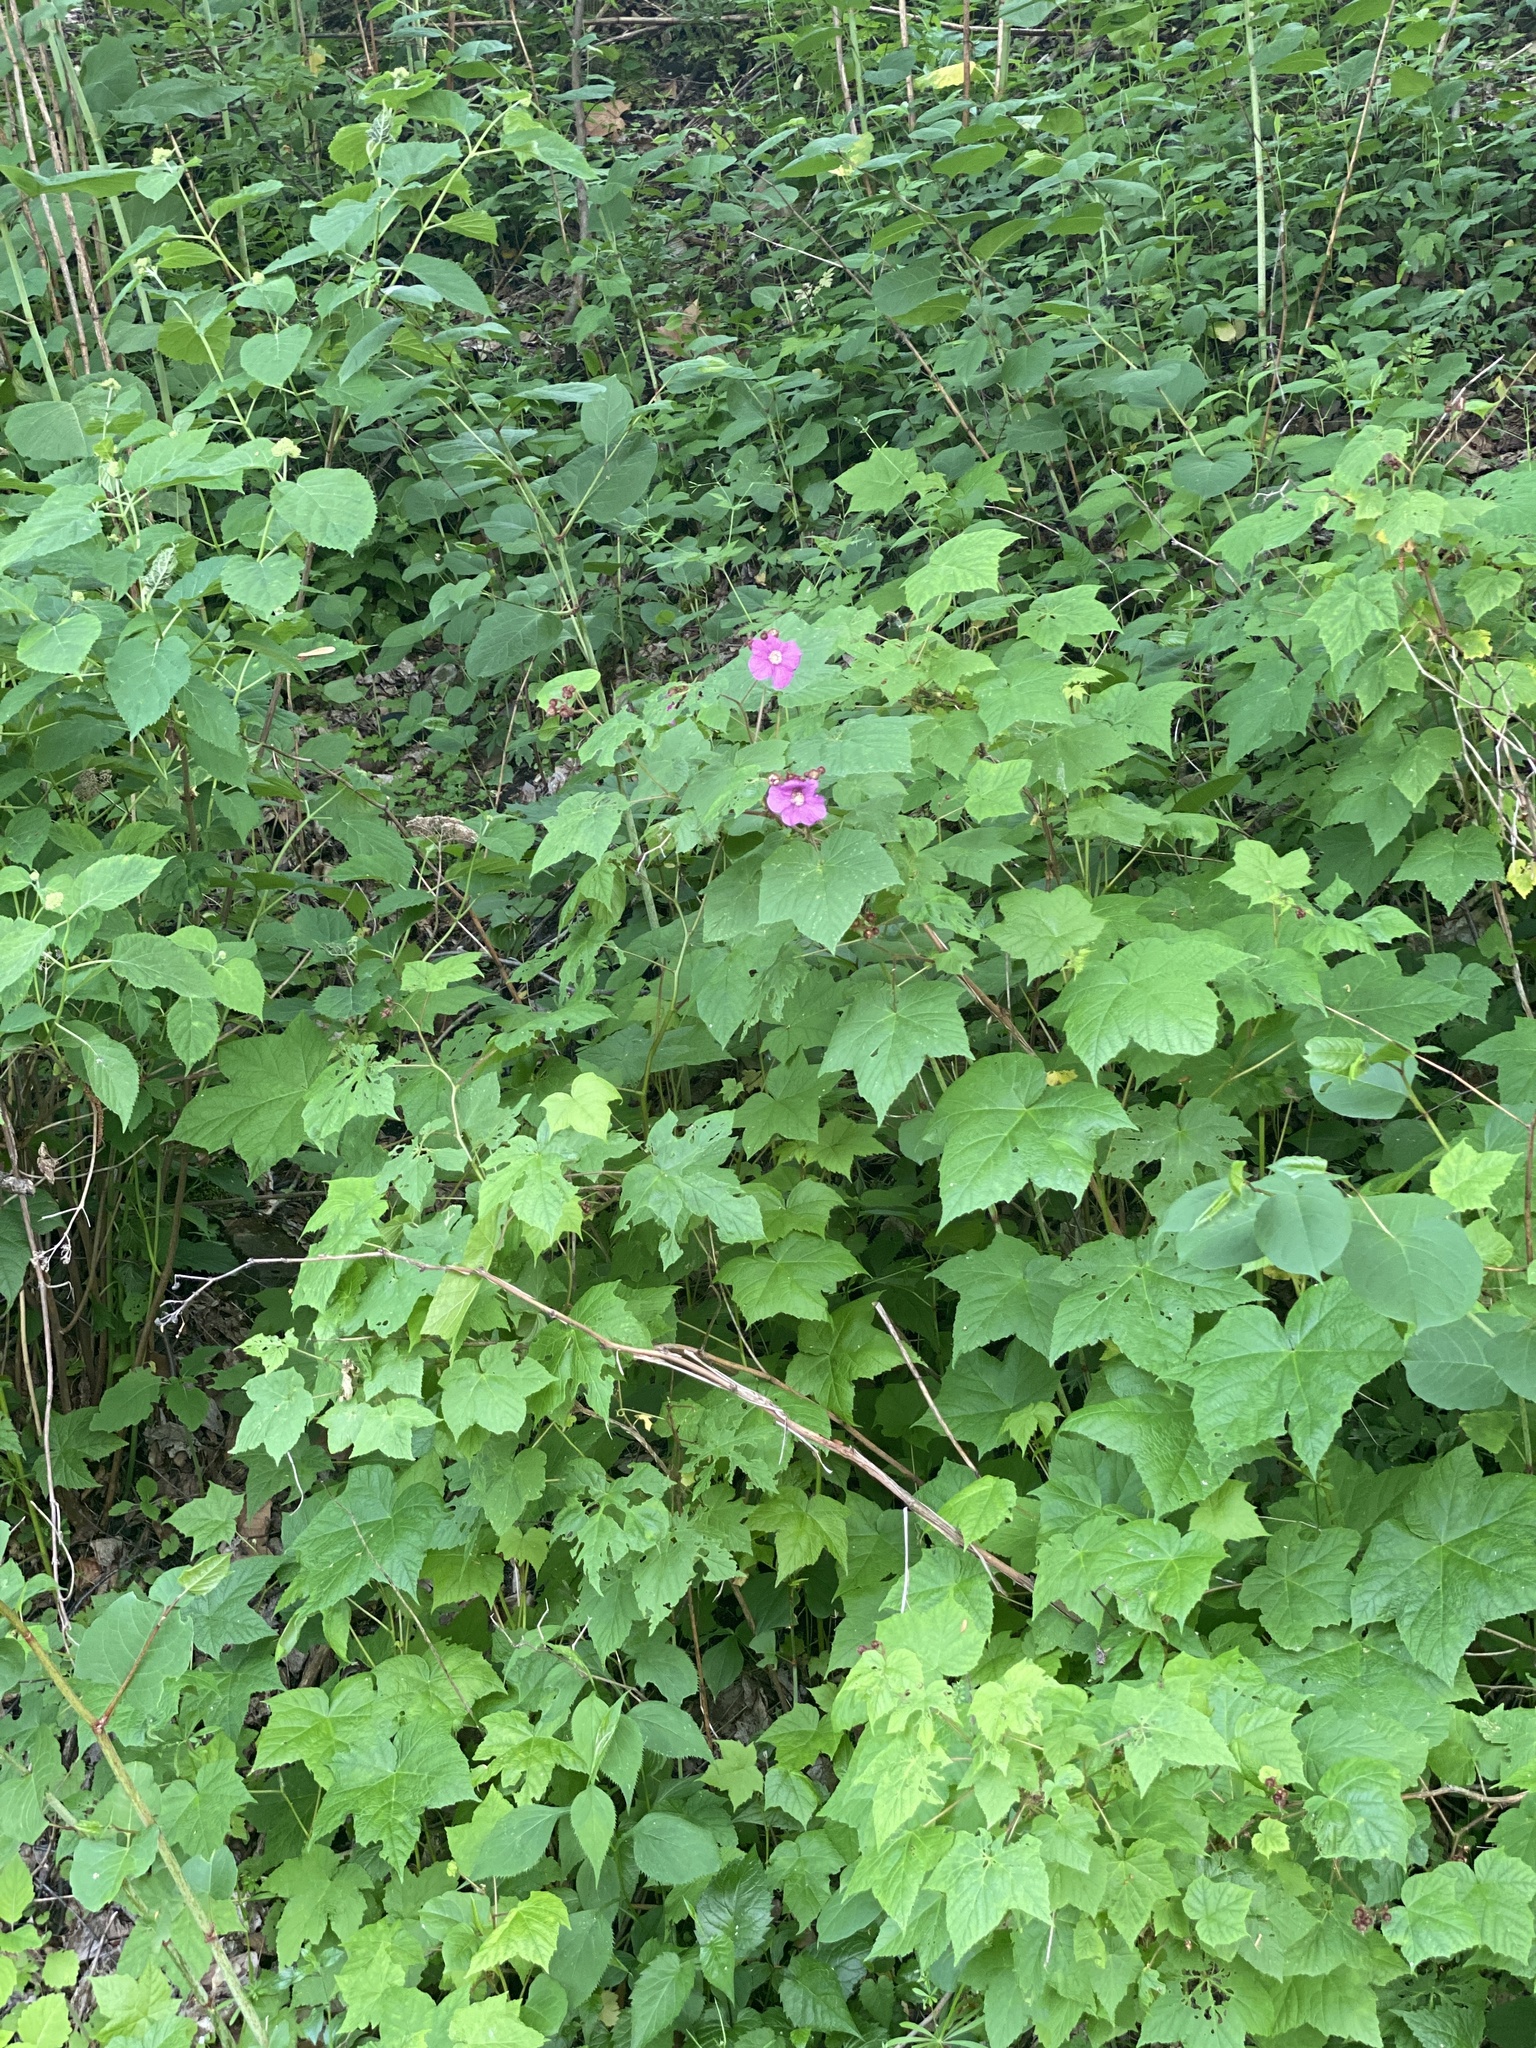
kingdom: Plantae
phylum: Tracheophyta
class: Magnoliopsida
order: Rosales
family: Rosaceae
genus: Rubus
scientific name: Rubus odoratus
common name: Purple-flowered raspberry
